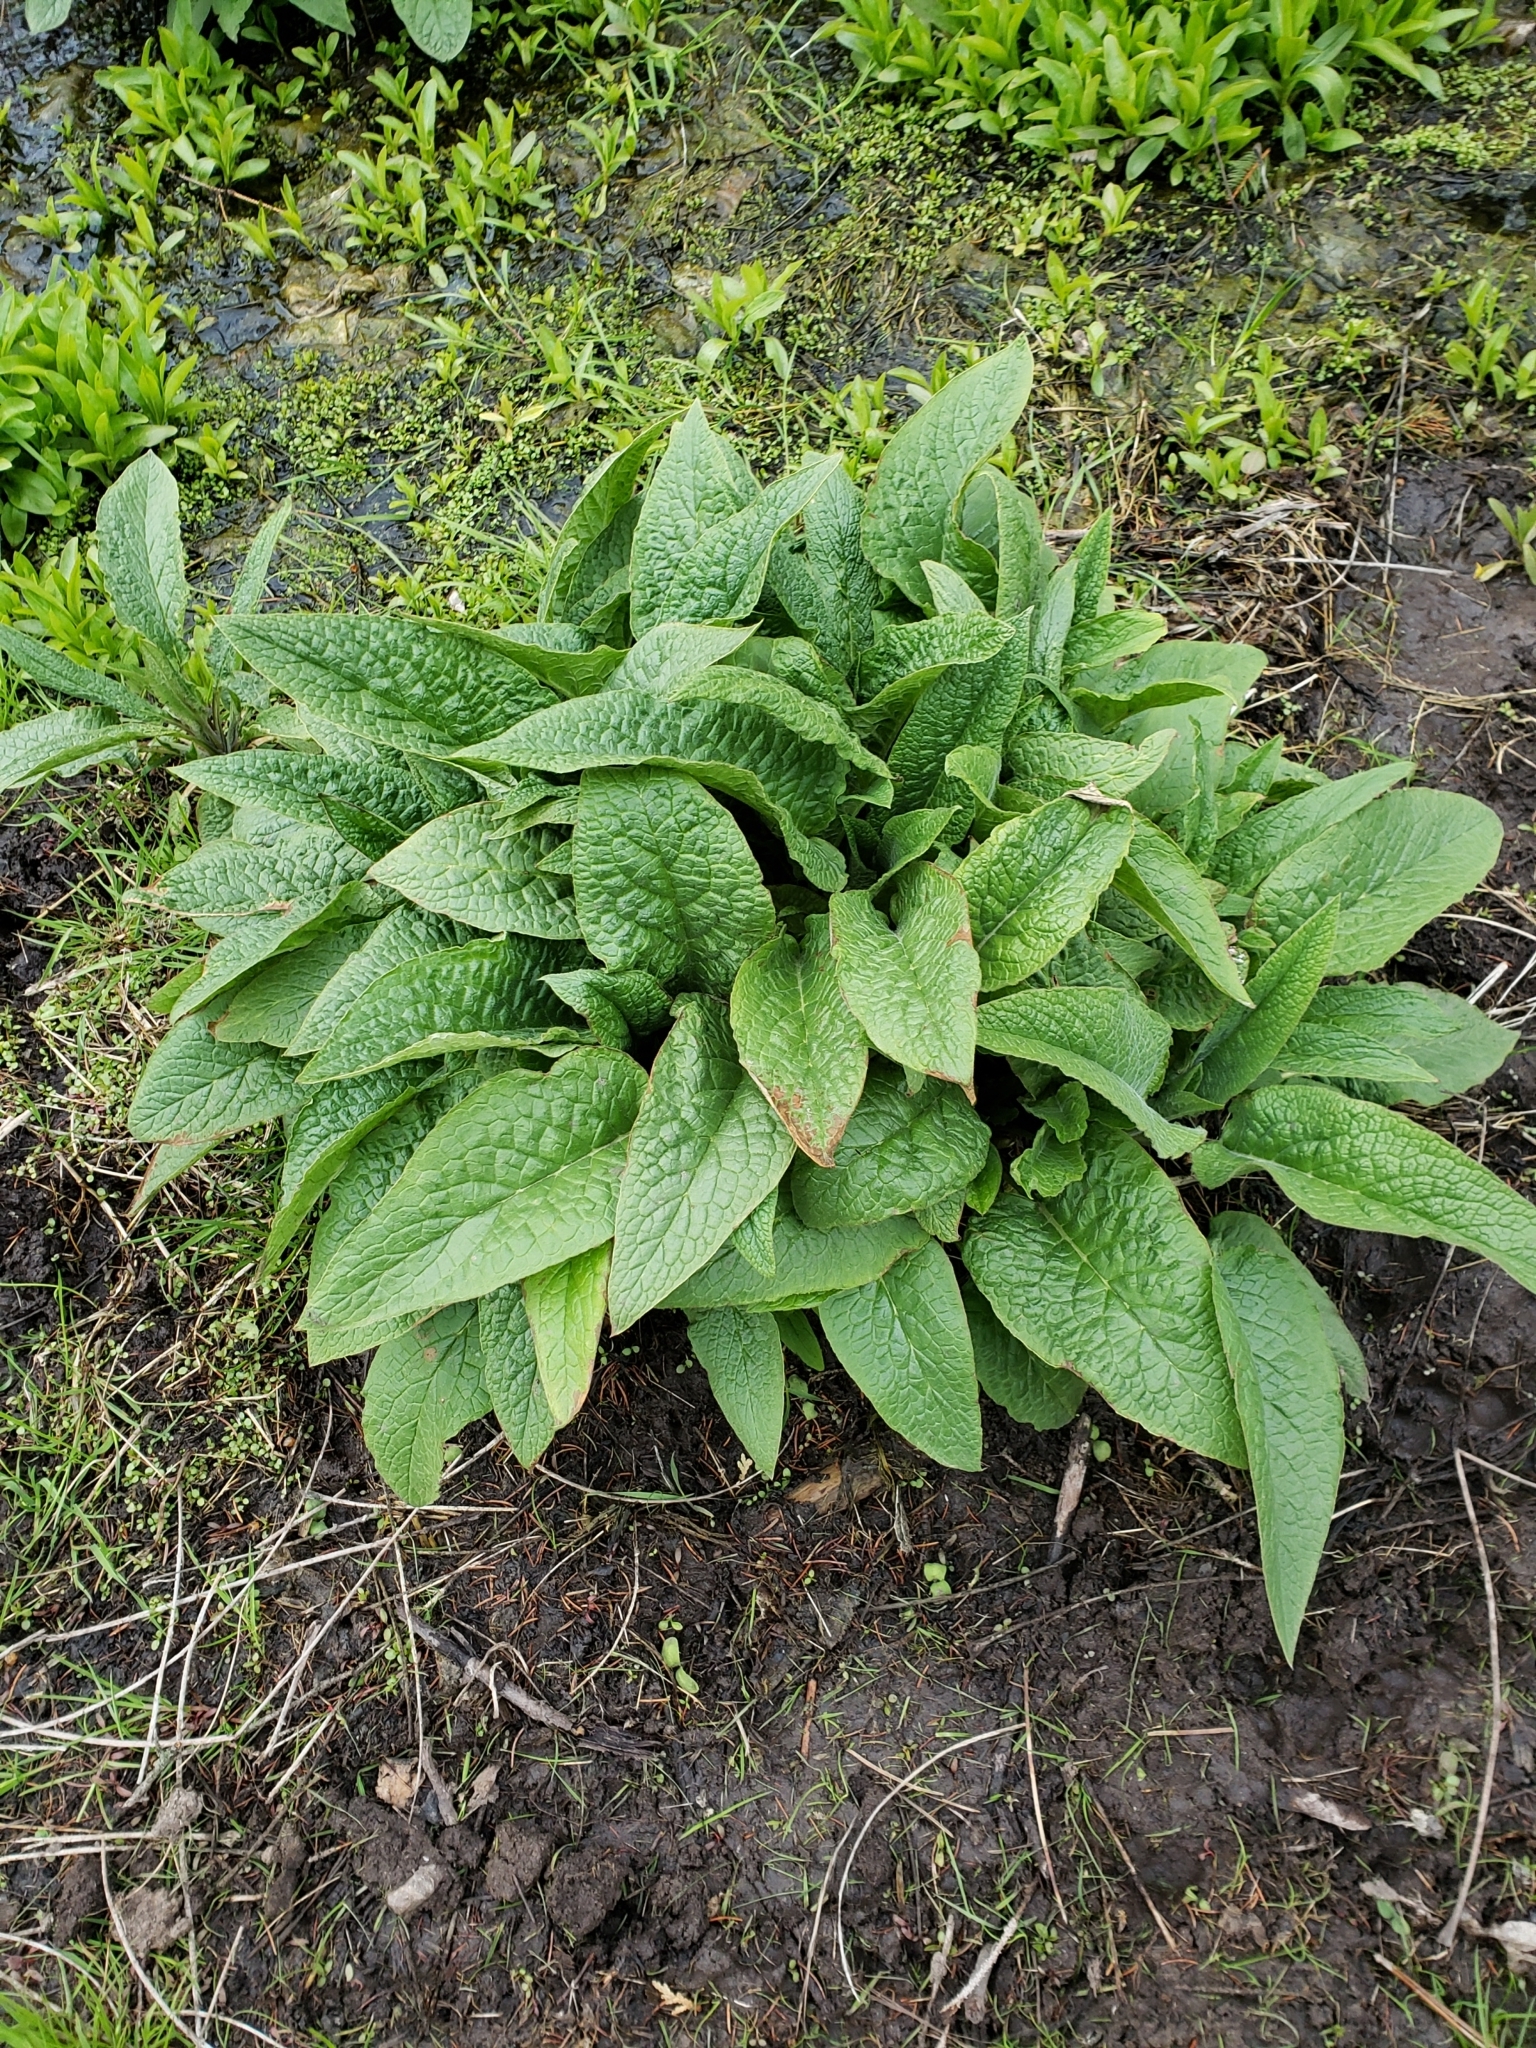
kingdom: Plantae
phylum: Tracheophyta
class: Magnoliopsida
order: Boraginales
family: Boraginaceae
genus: Symphytum
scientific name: Symphytum officinale
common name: Common comfrey
